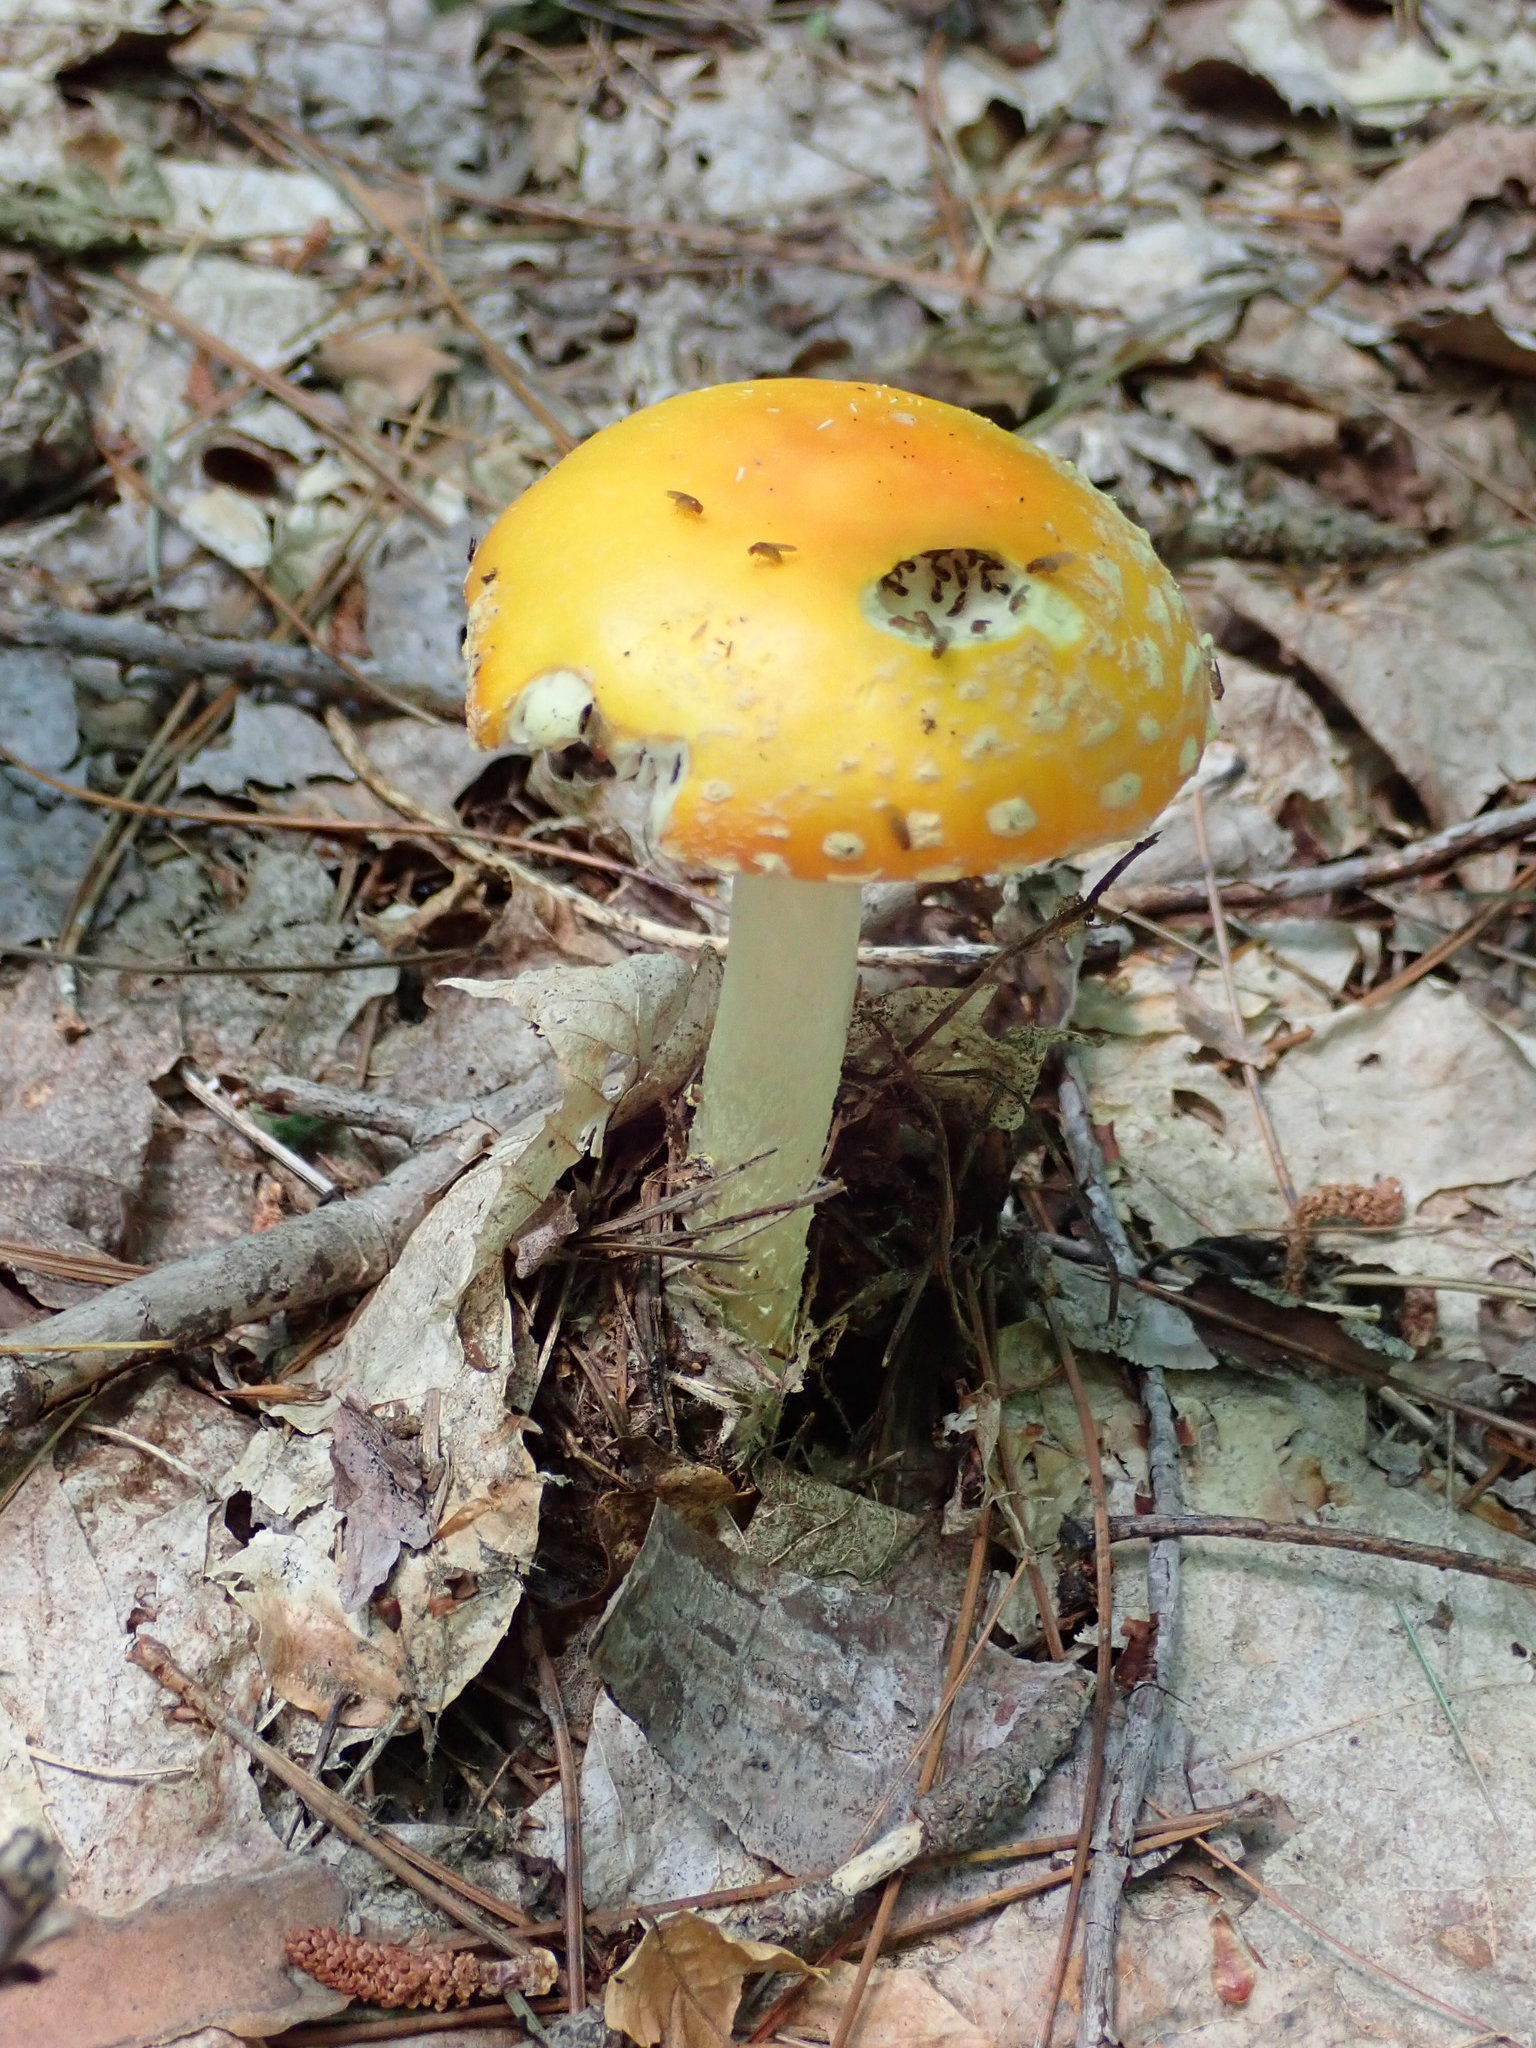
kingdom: Fungi
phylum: Basidiomycota
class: Agaricomycetes
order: Agaricales
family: Amanitaceae
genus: Amanita
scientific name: Amanita
